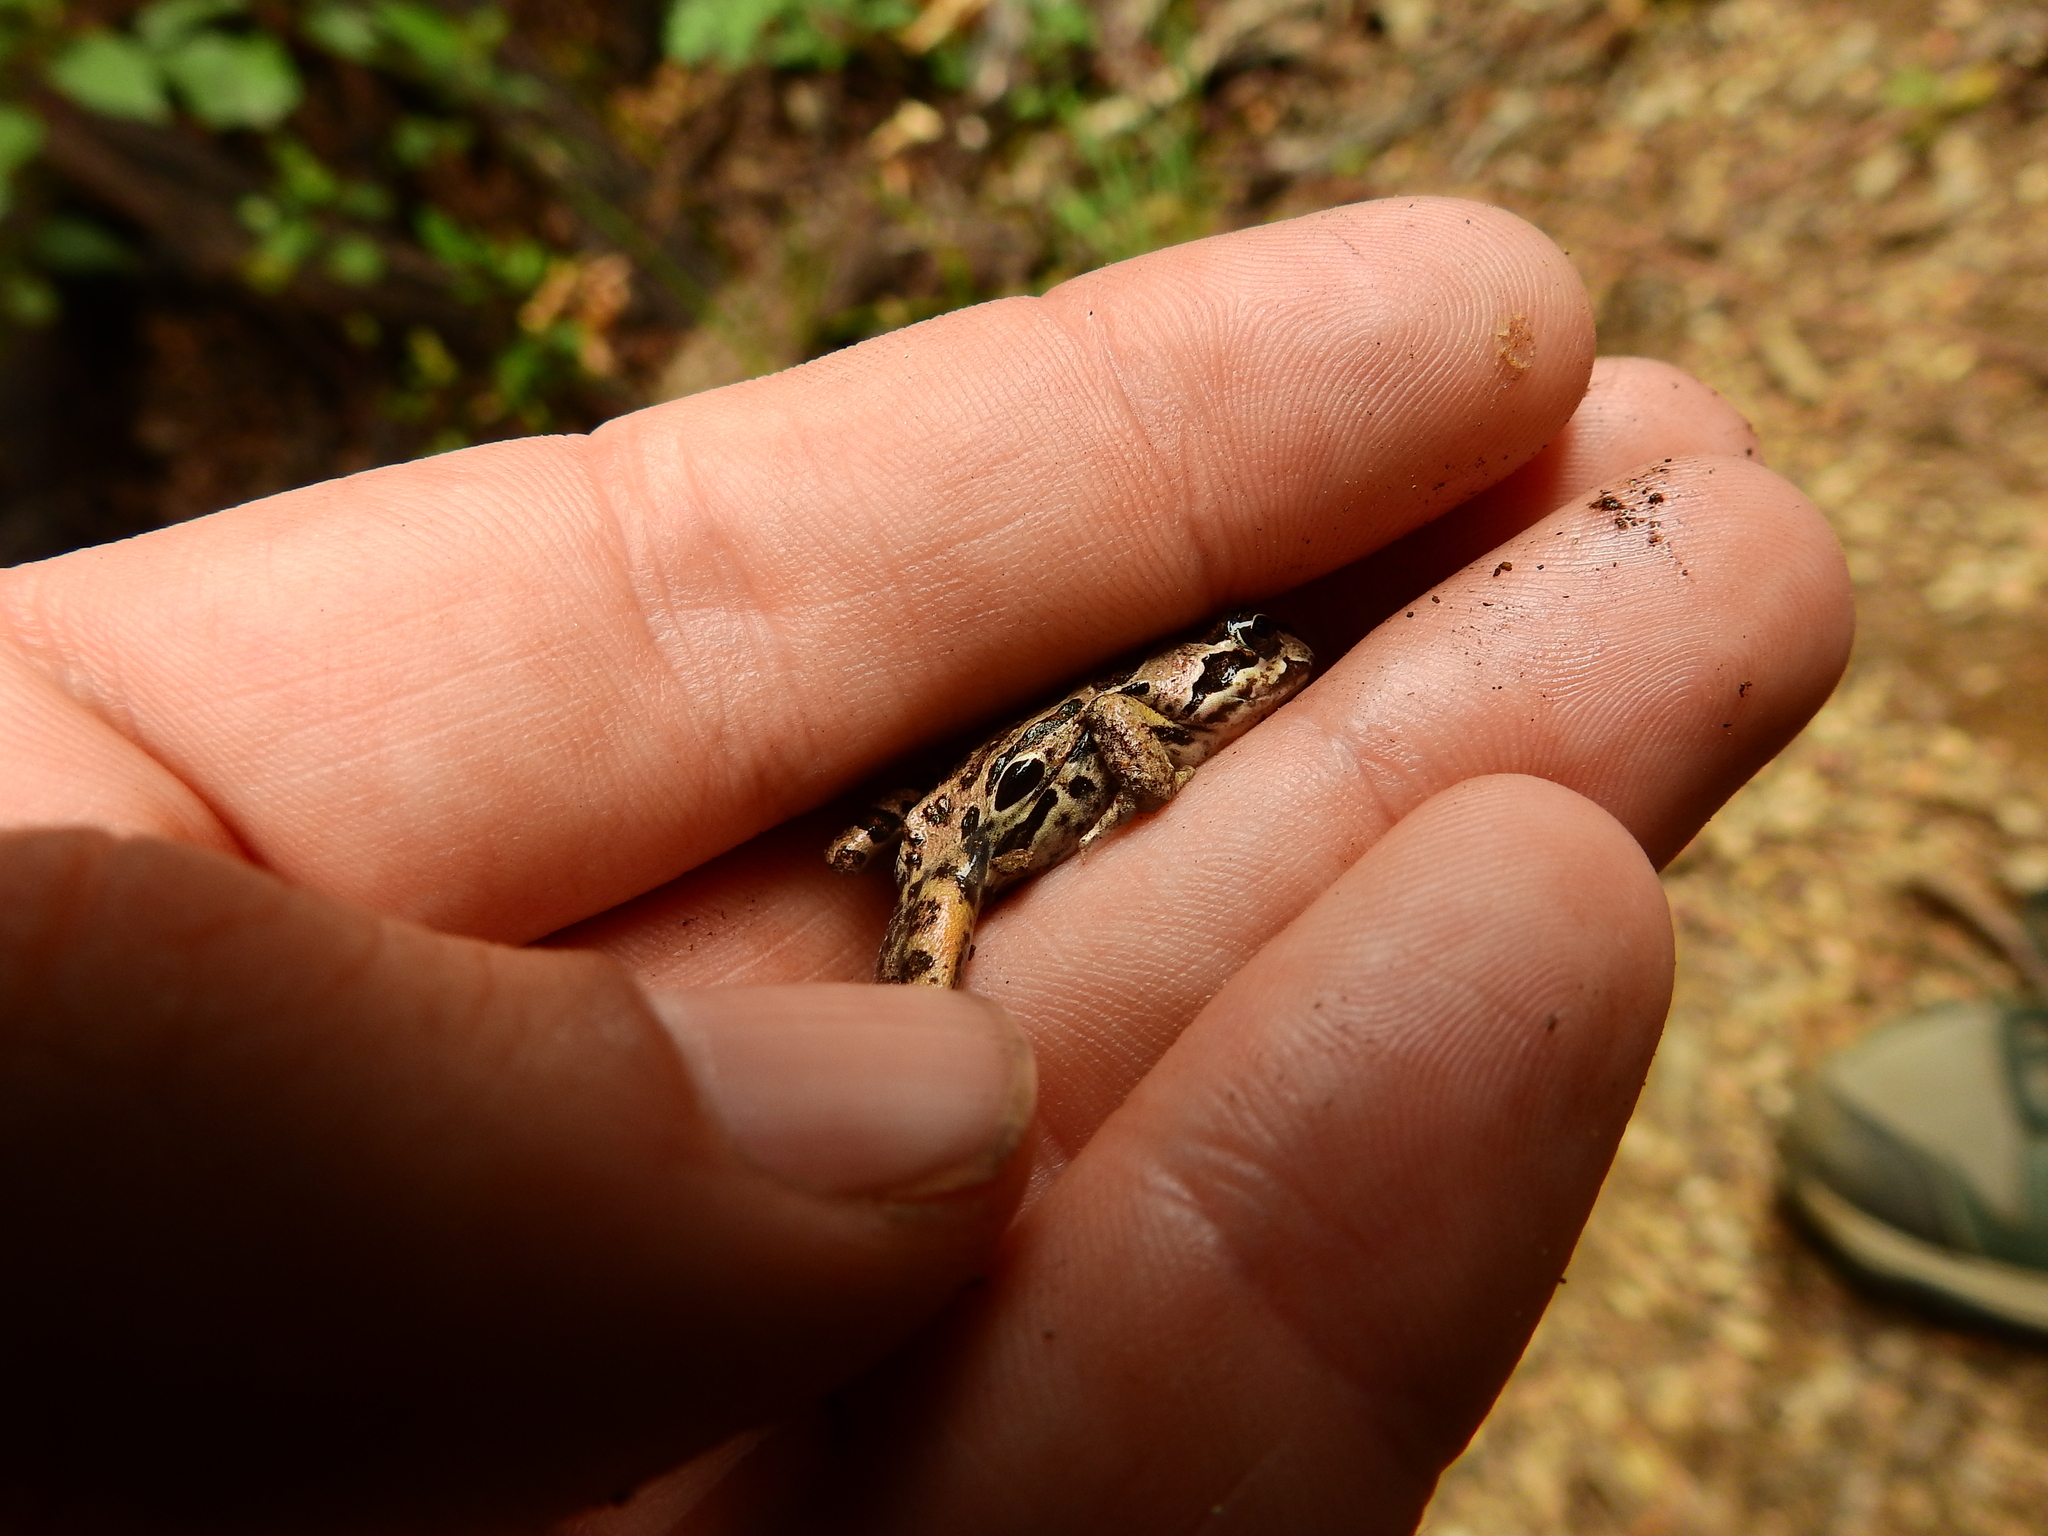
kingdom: Animalia
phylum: Chordata
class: Amphibia
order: Anura
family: Leptodactylidae
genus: Pleurodema
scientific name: Pleurodema thaul
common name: Chile four-eyed frog
